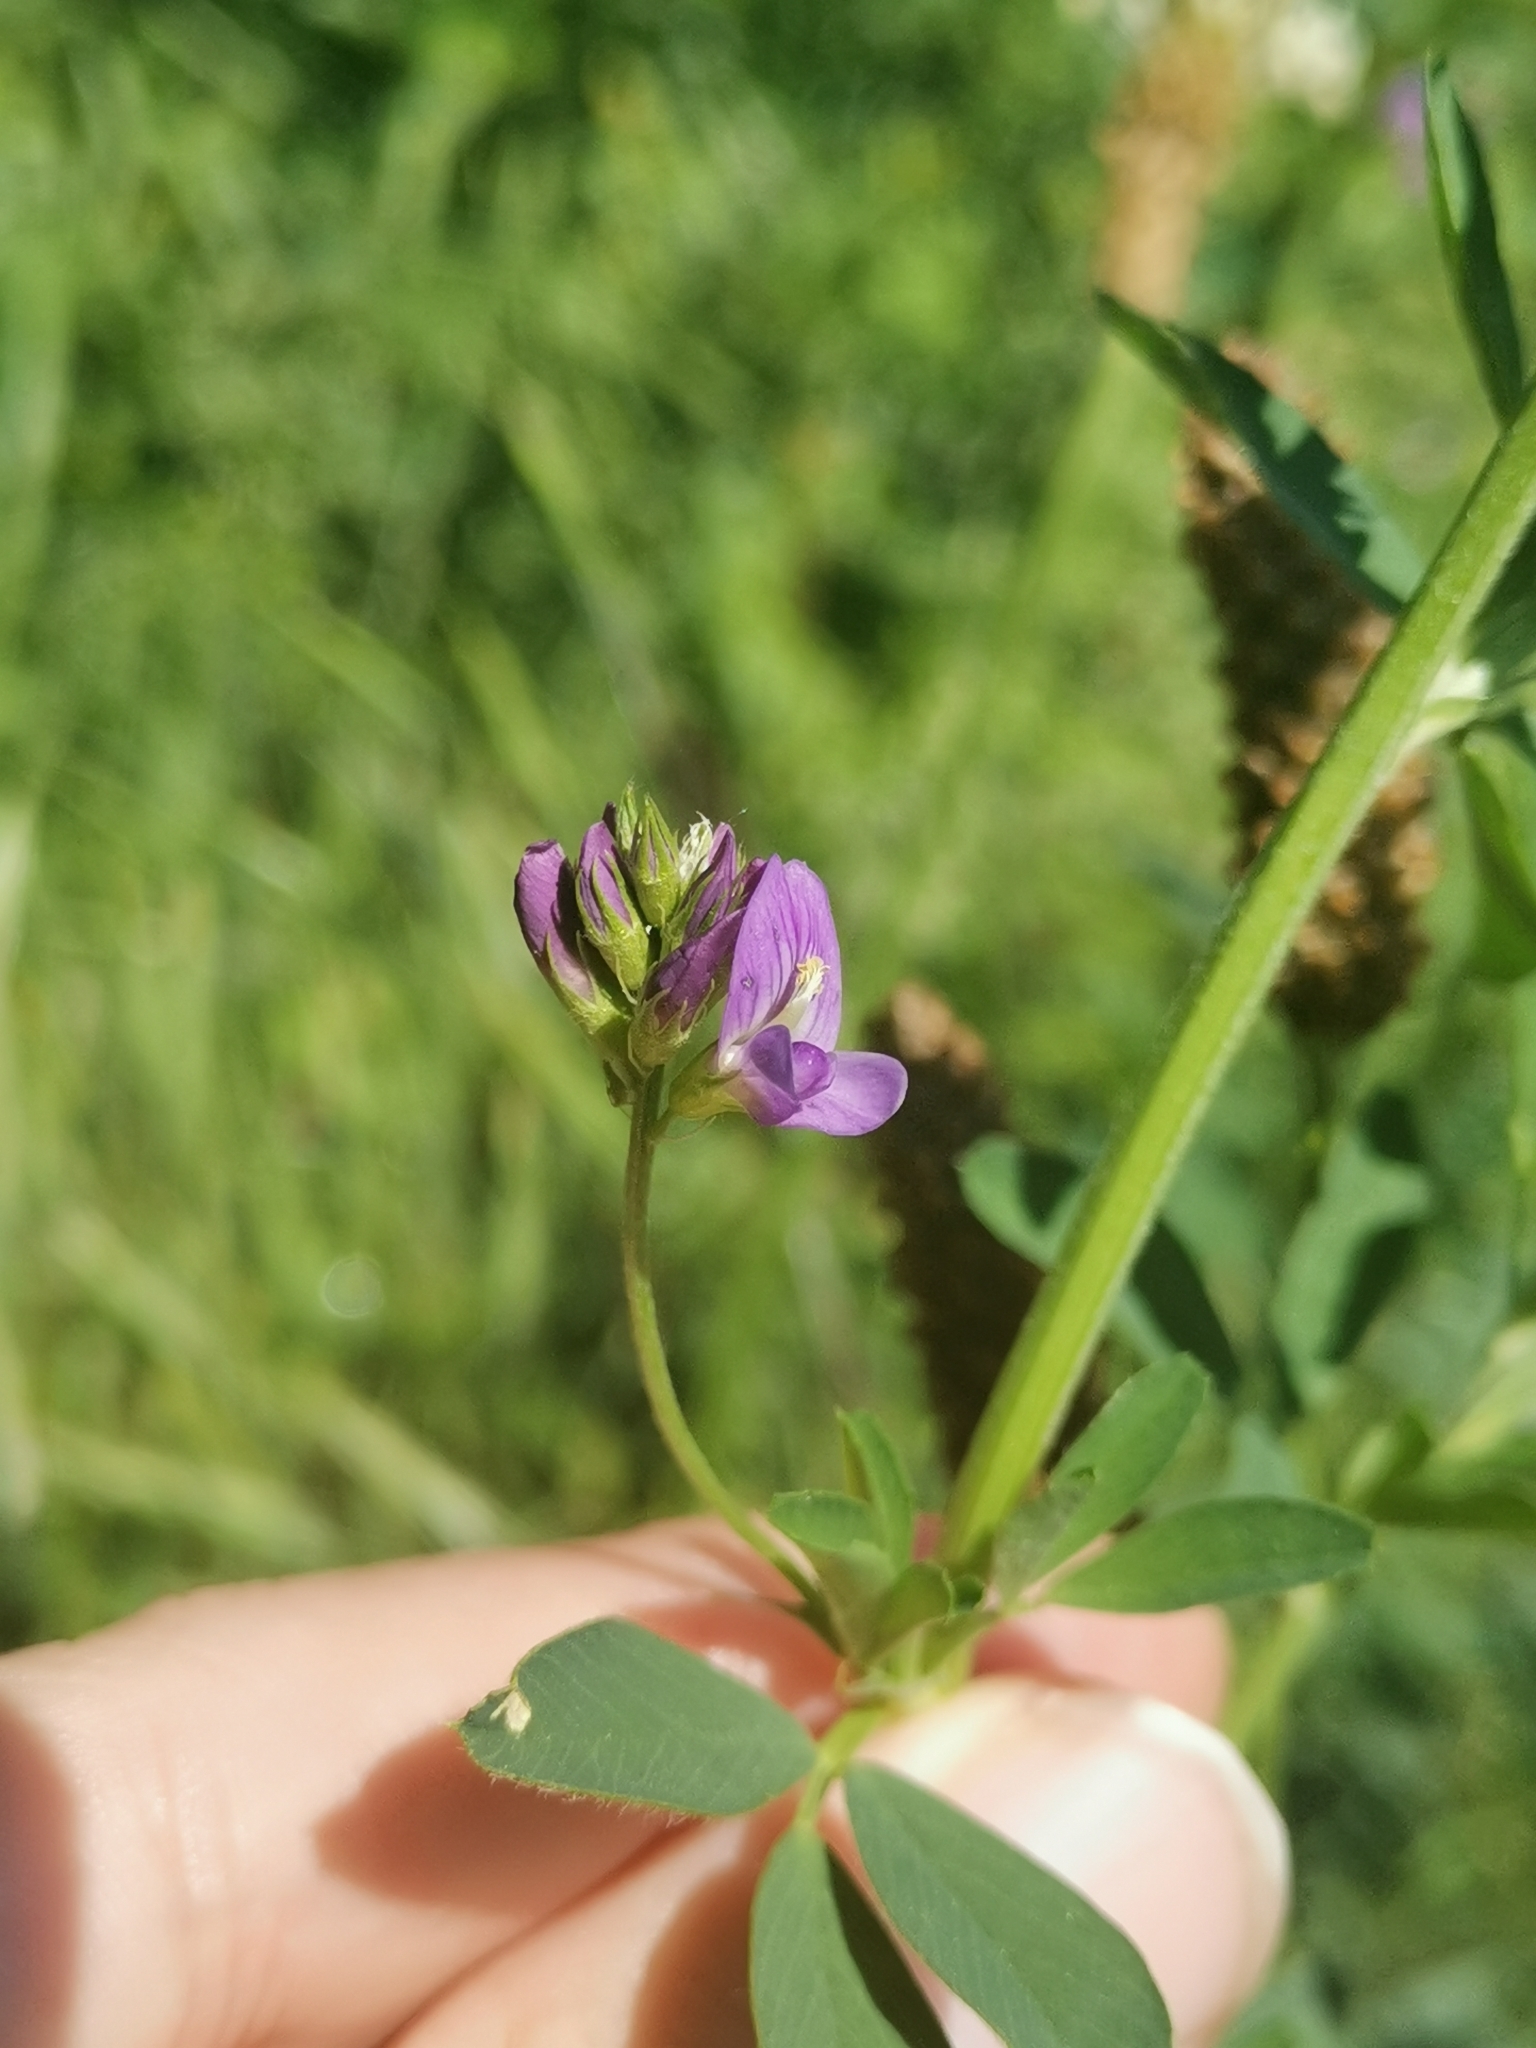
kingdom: Plantae
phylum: Tracheophyta
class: Magnoliopsida
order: Fabales
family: Fabaceae
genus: Medicago
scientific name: Medicago sativa
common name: Alfalfa
